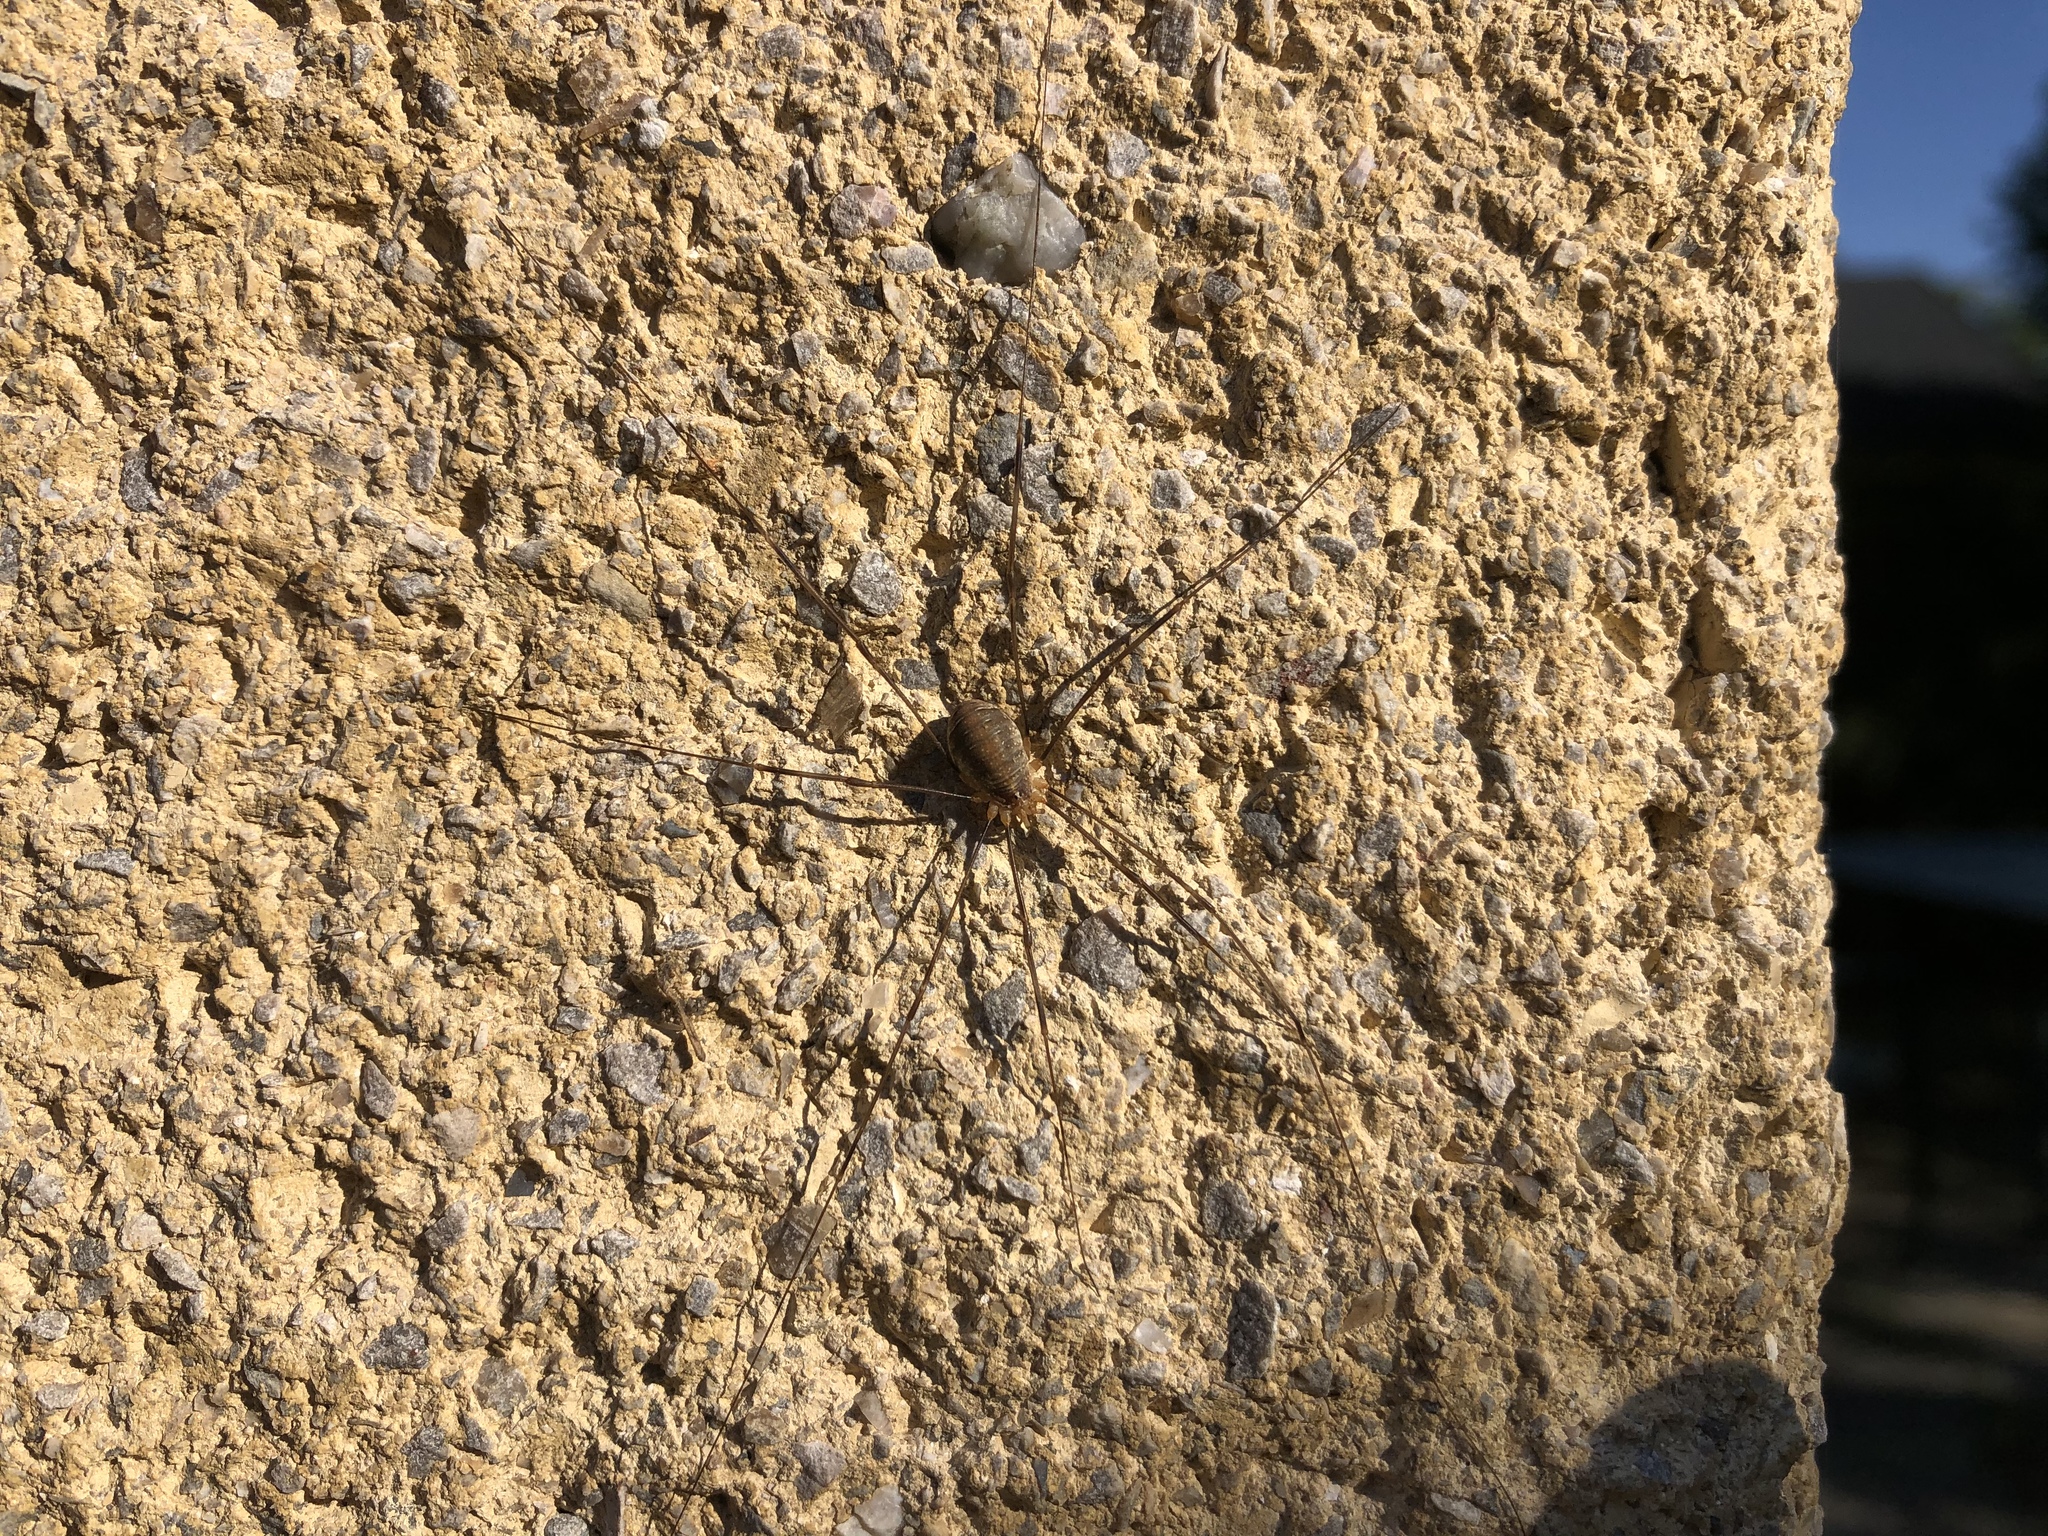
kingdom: Animalia
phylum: Arthropoda
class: Arachnida
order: Opiliones
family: Phalangiidae
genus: Opilio
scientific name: Opilio canestrinii
